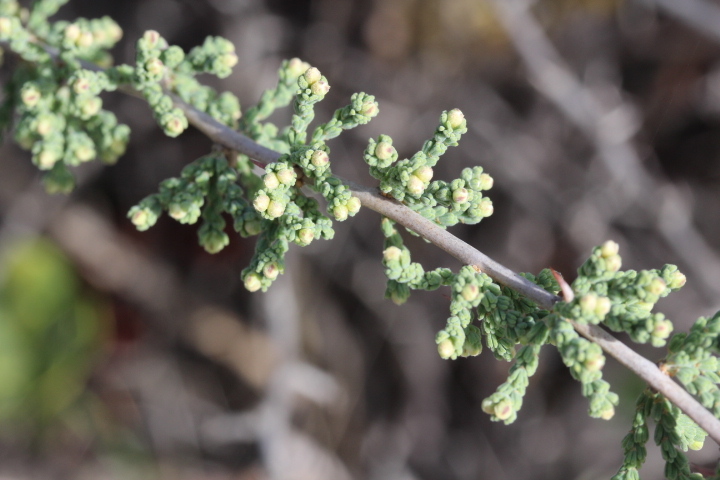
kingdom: Plantae
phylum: Tracheophyta
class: Liliopsida
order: Asparagales
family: Asparagaceae
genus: Asparagus
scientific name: Asparagus capensis
